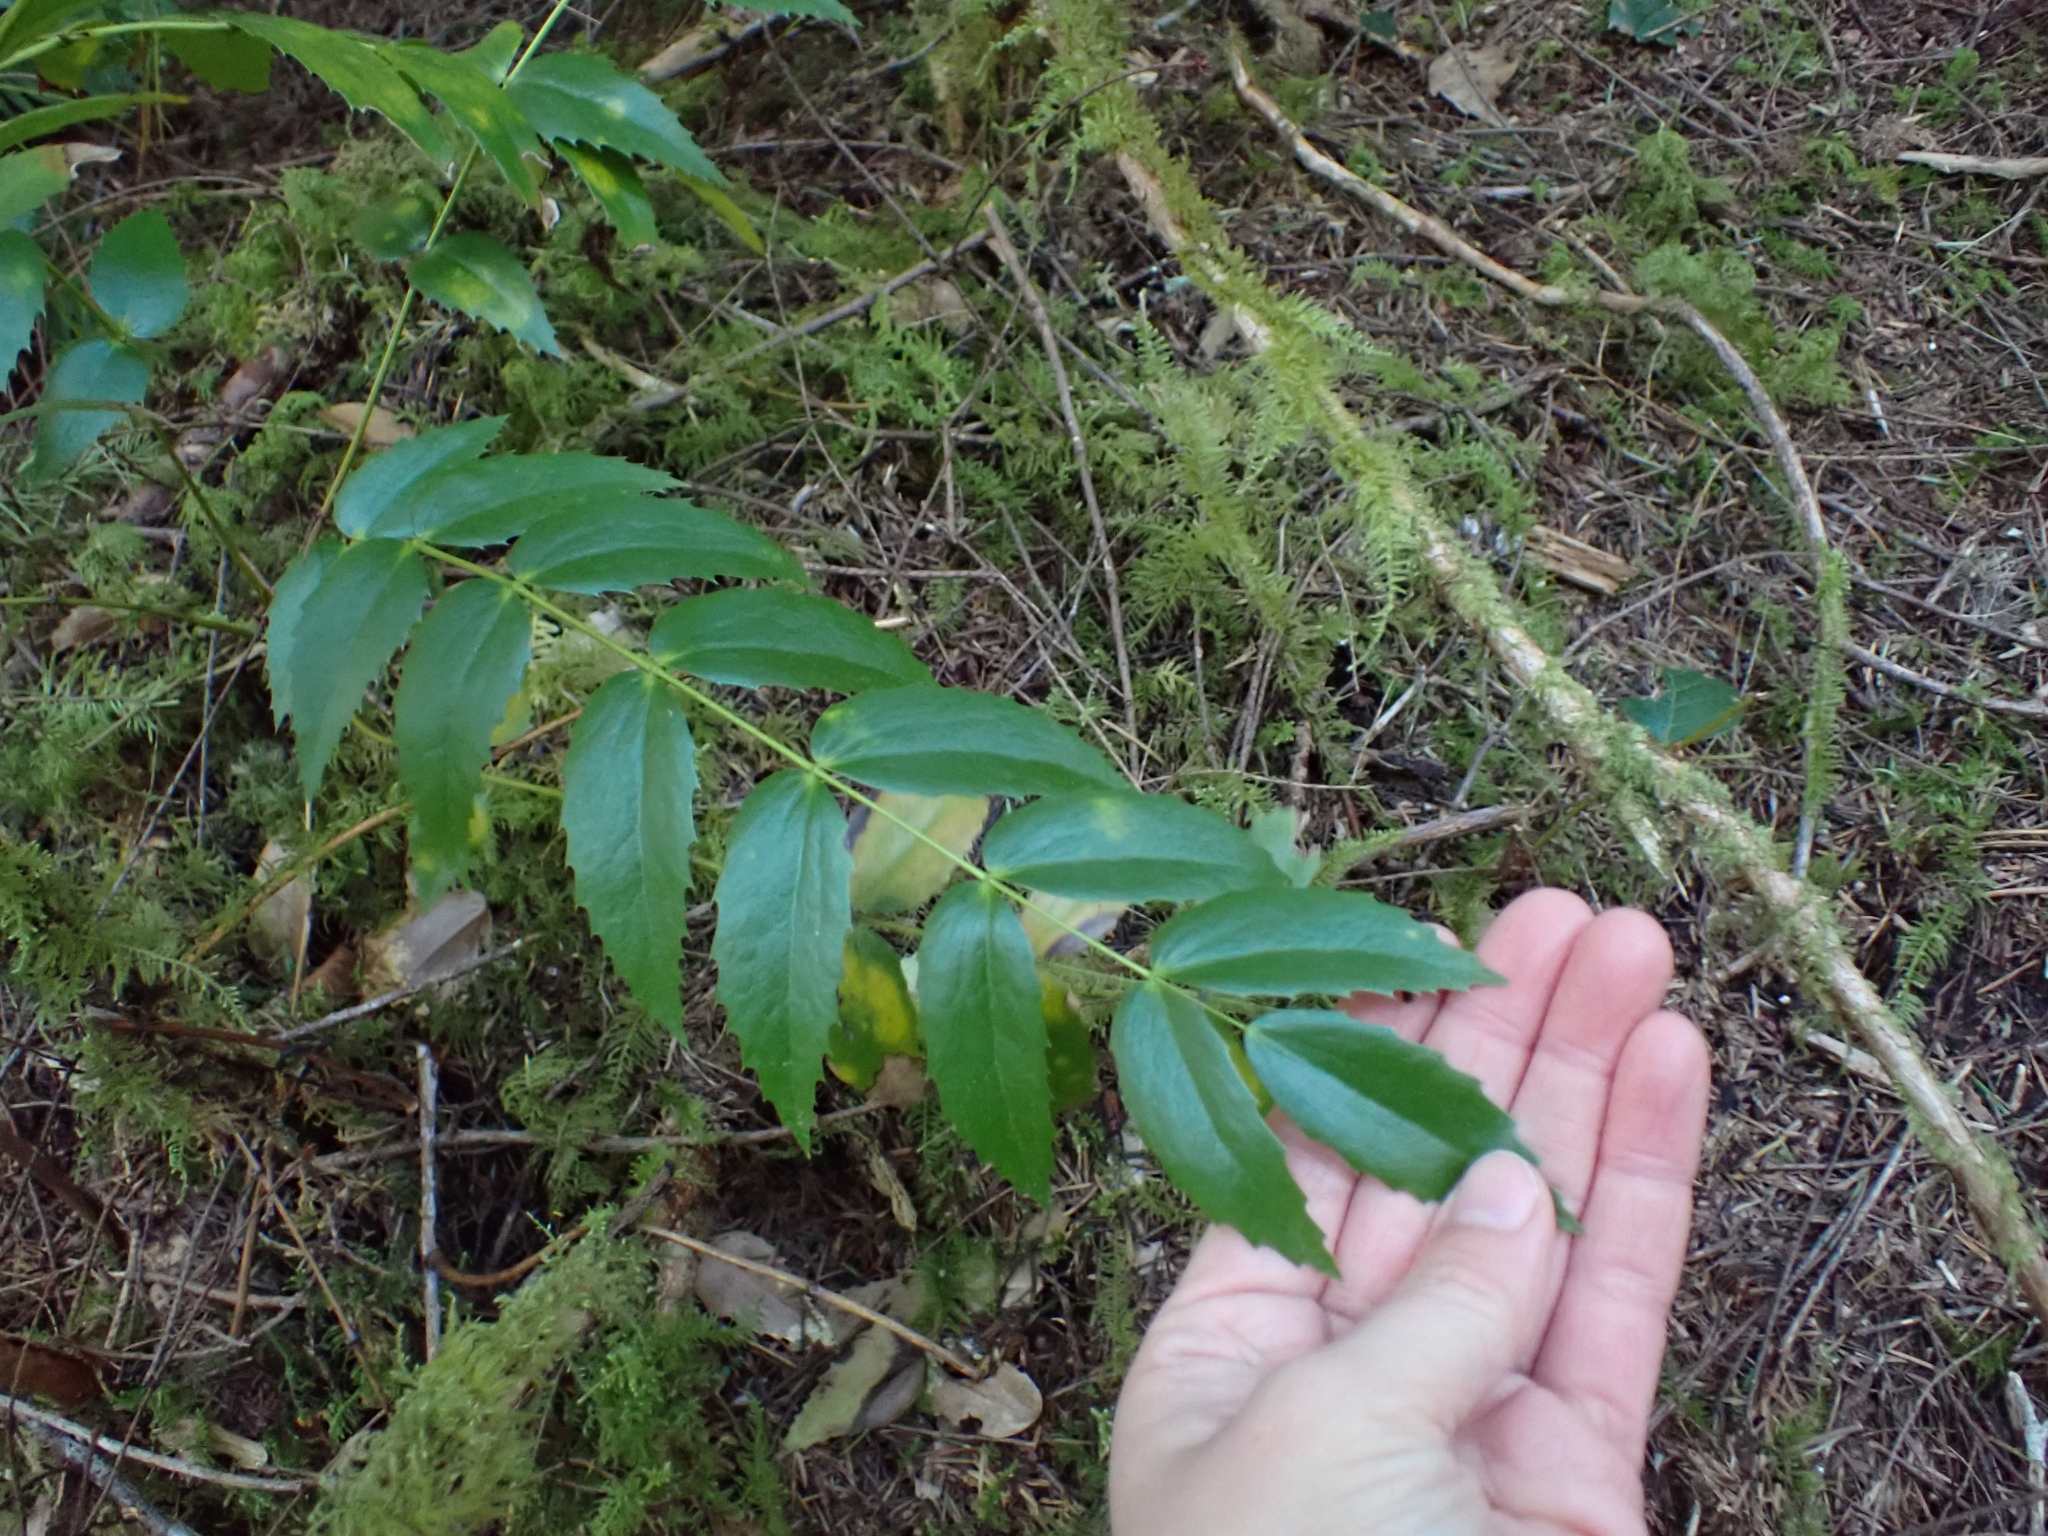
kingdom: Plantae
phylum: Tracheophyta
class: Magnoliopsida
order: Ranunculales
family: Berberidaceae
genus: Mahonia
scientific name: Mahonia nervosa
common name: Cascade oregon-grape
